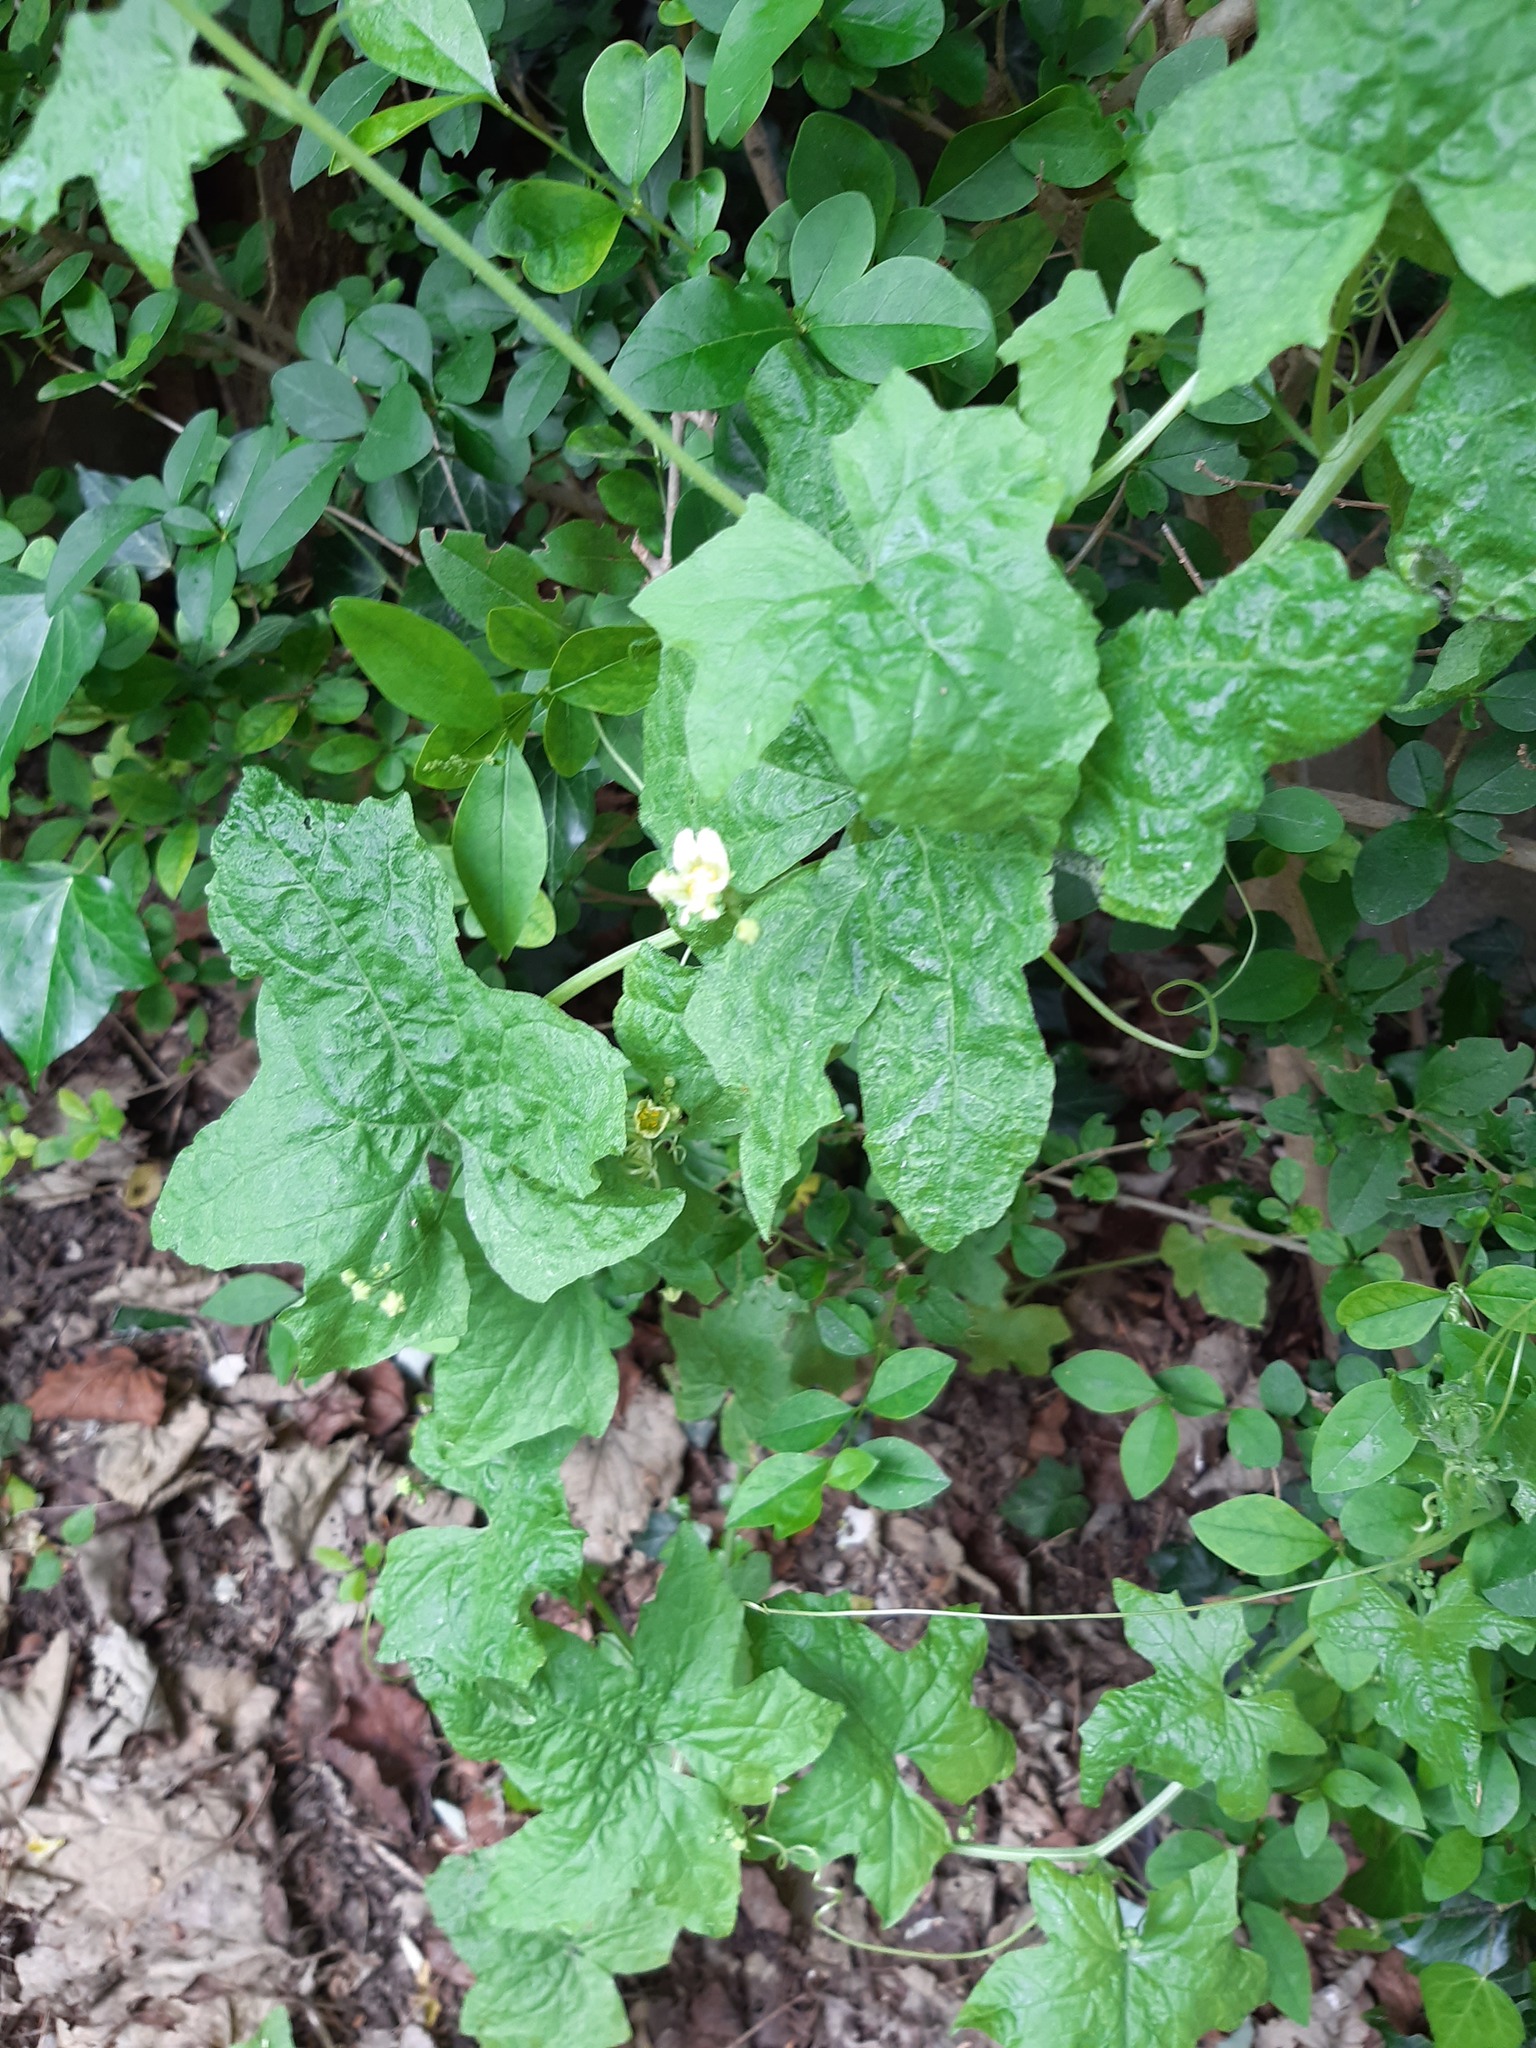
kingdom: Plantae
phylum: Tracheophyta
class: Magnoliopsida
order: Cucurbitales
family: Cucurbitaceae
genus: Bryonia
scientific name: Bryonia cretica
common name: Cretan bryony
